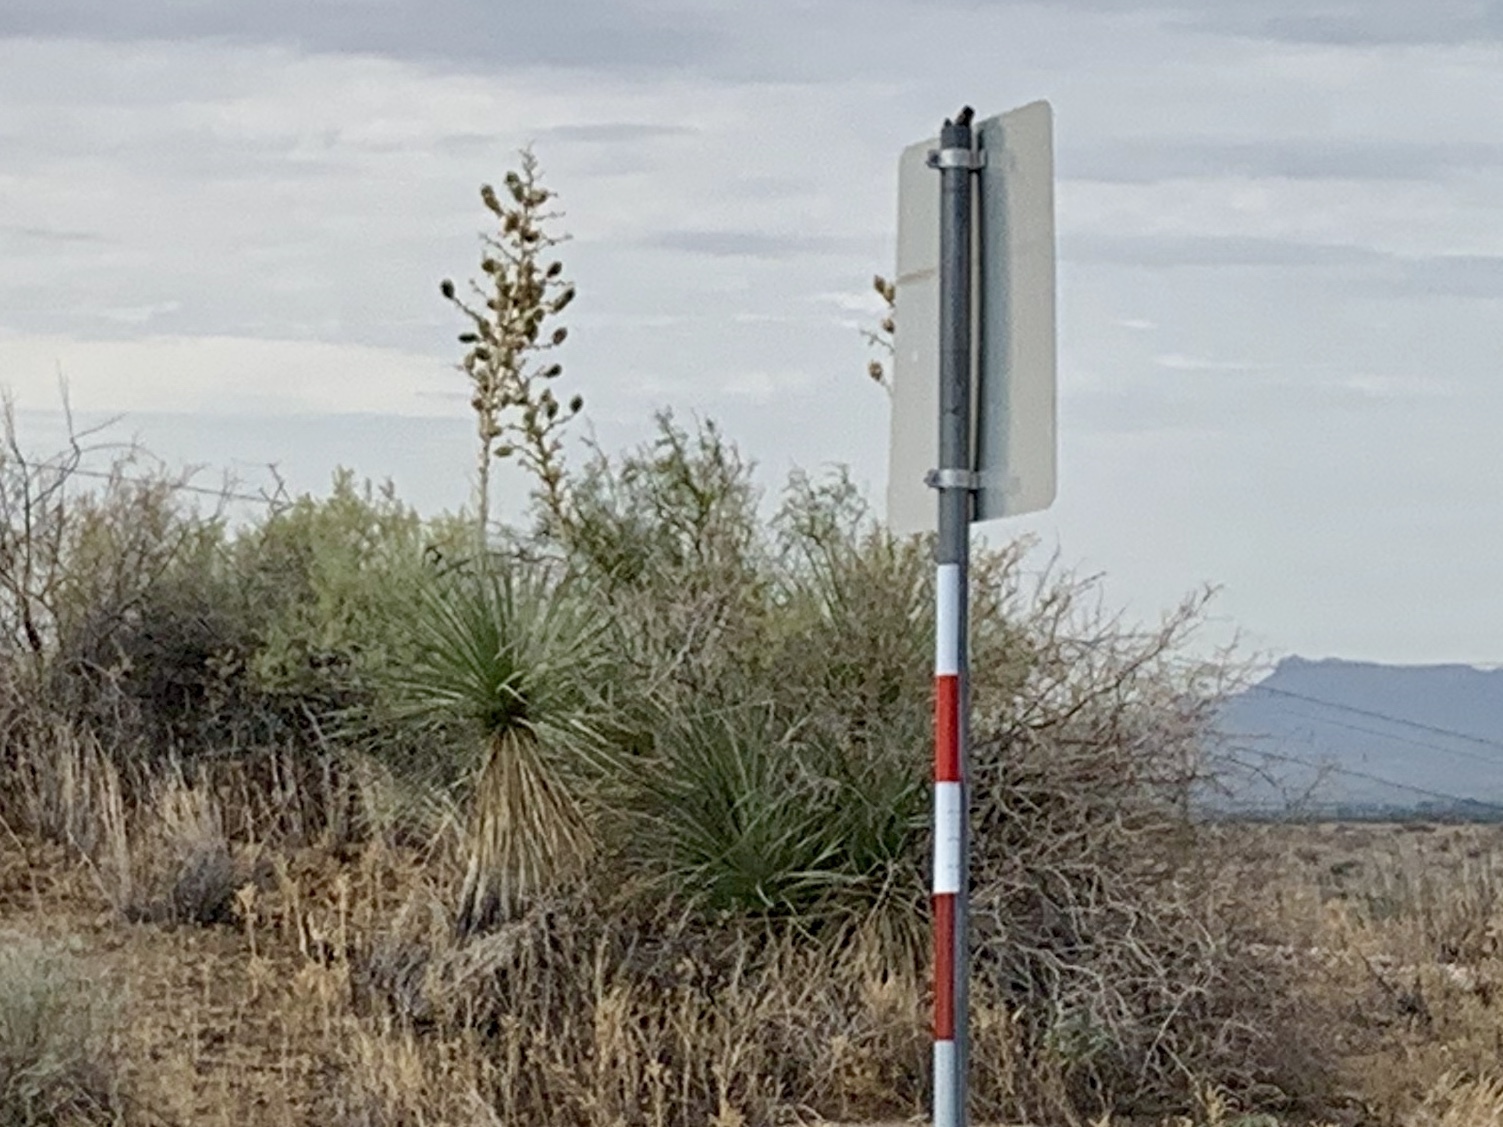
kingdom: Plantae
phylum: Tracheophyta
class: Liliopsida
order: Asparagales
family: Asparagaceae
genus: Yucca
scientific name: Yucca elata
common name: Palmella
